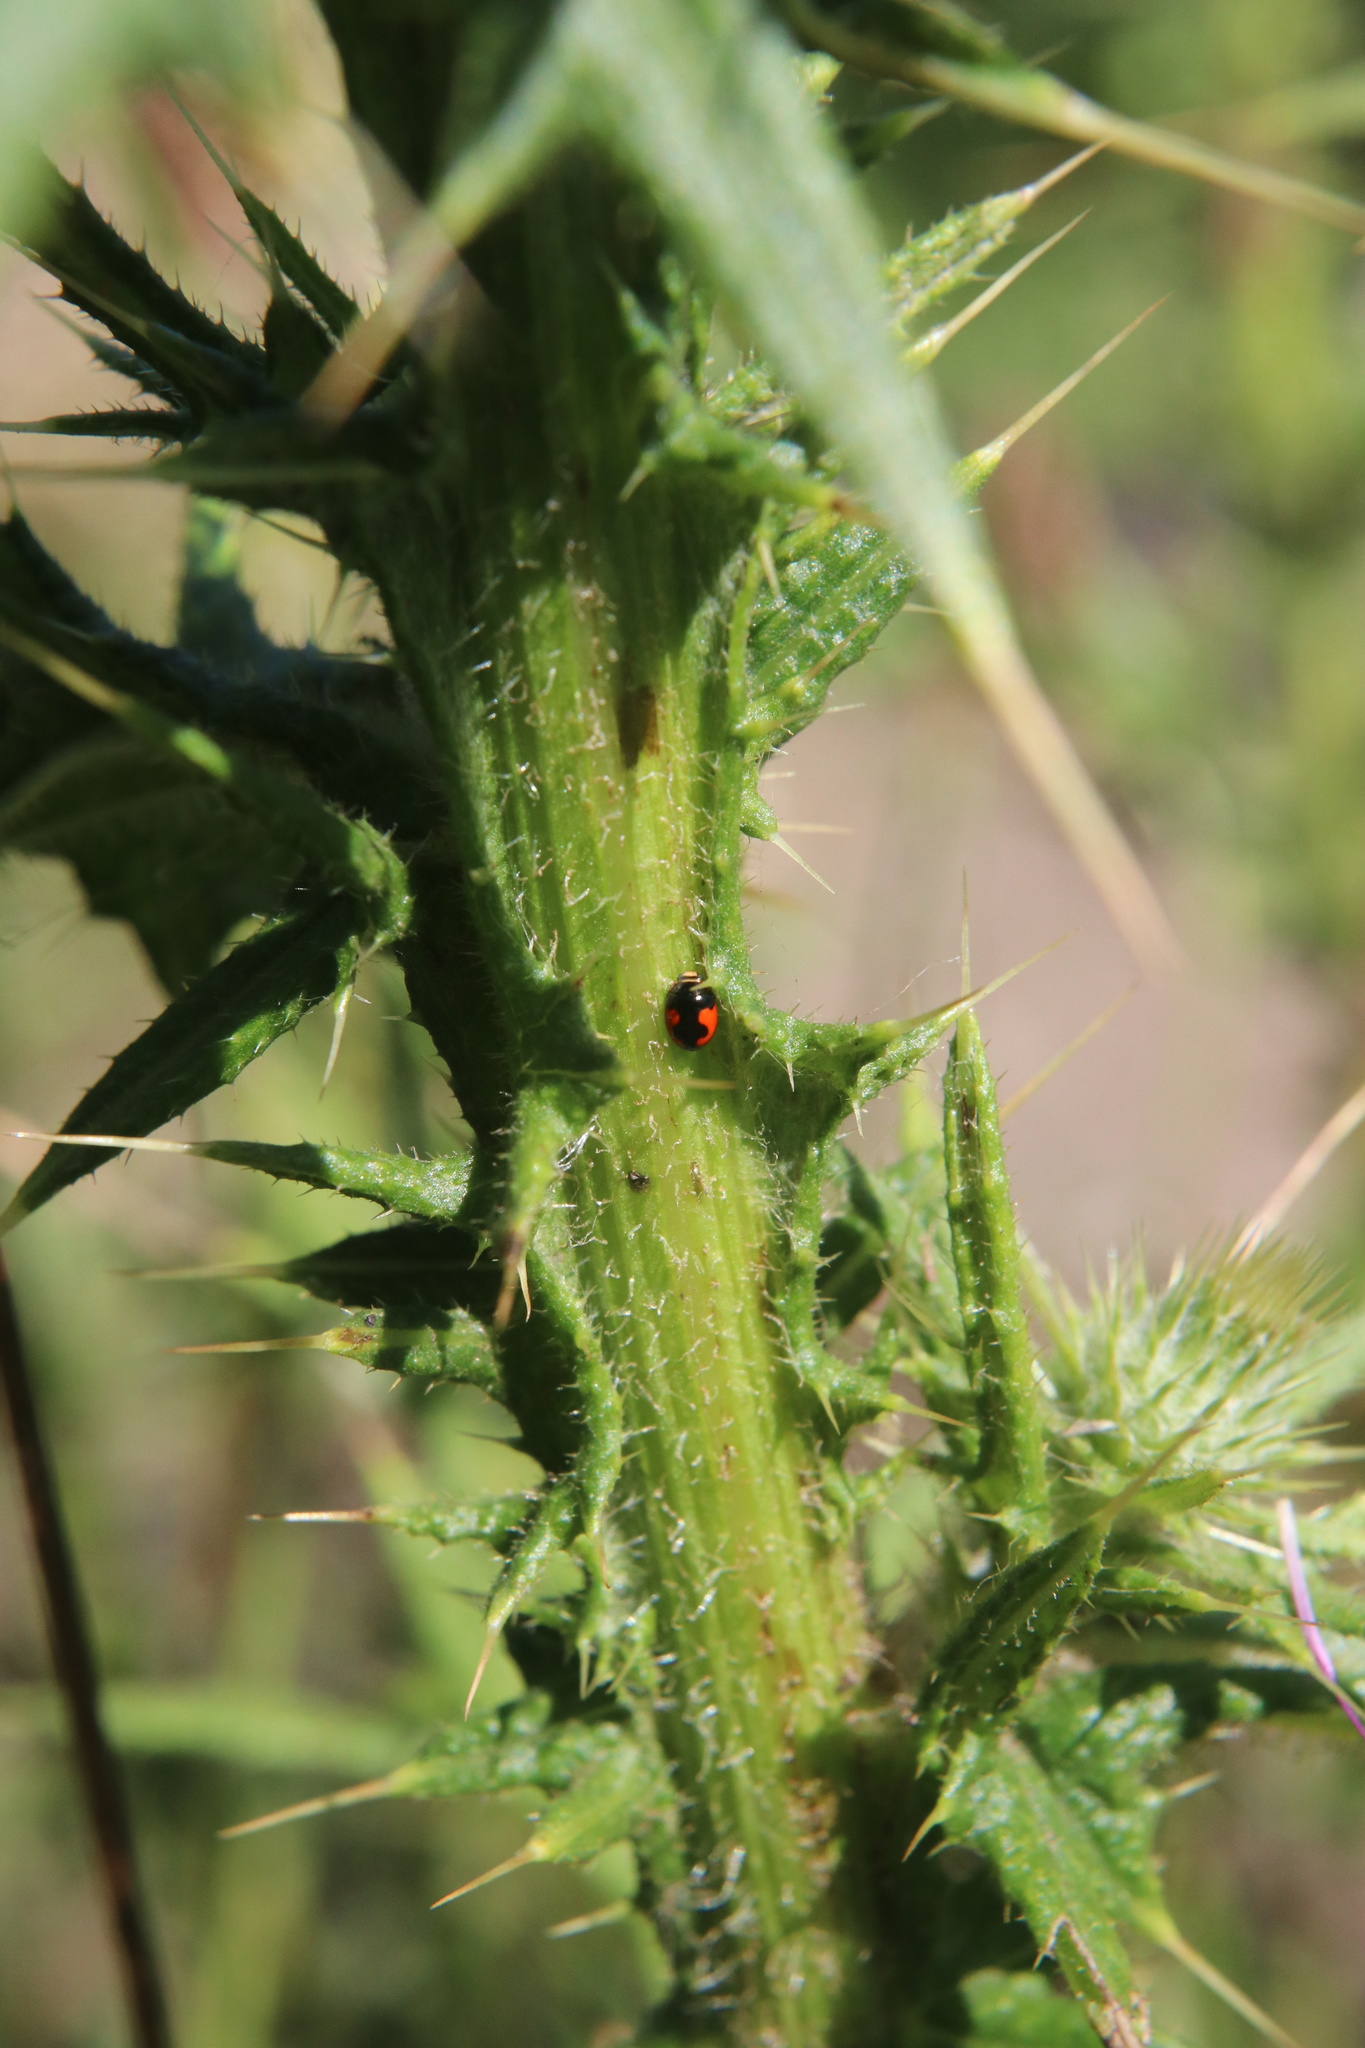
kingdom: Animalia
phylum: Arthropoda
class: Insecta
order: Coleoptera
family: Coccinellidae
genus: Hyperaspis
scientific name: Hyperaspis
